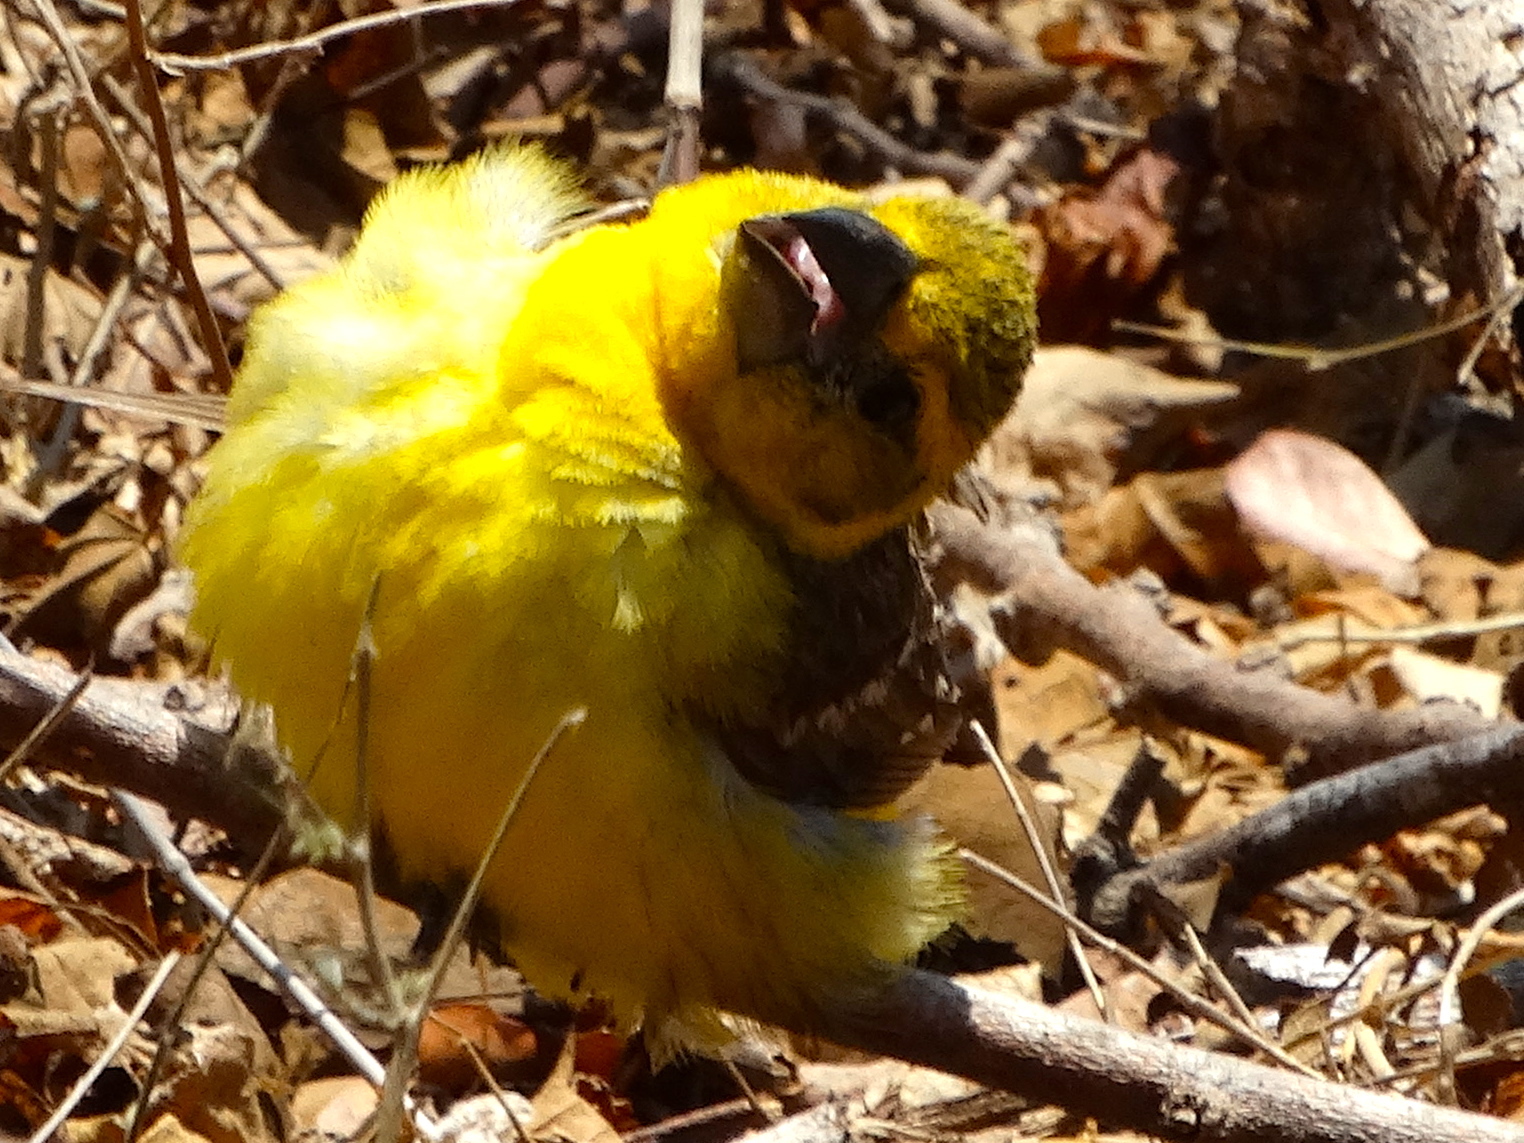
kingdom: Animalia
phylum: Chordata
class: Aves
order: Passeriformes
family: Cardinalidae
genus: Pheucticus
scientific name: Pheucticus chrysopeplus
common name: Yellow grosbeak
